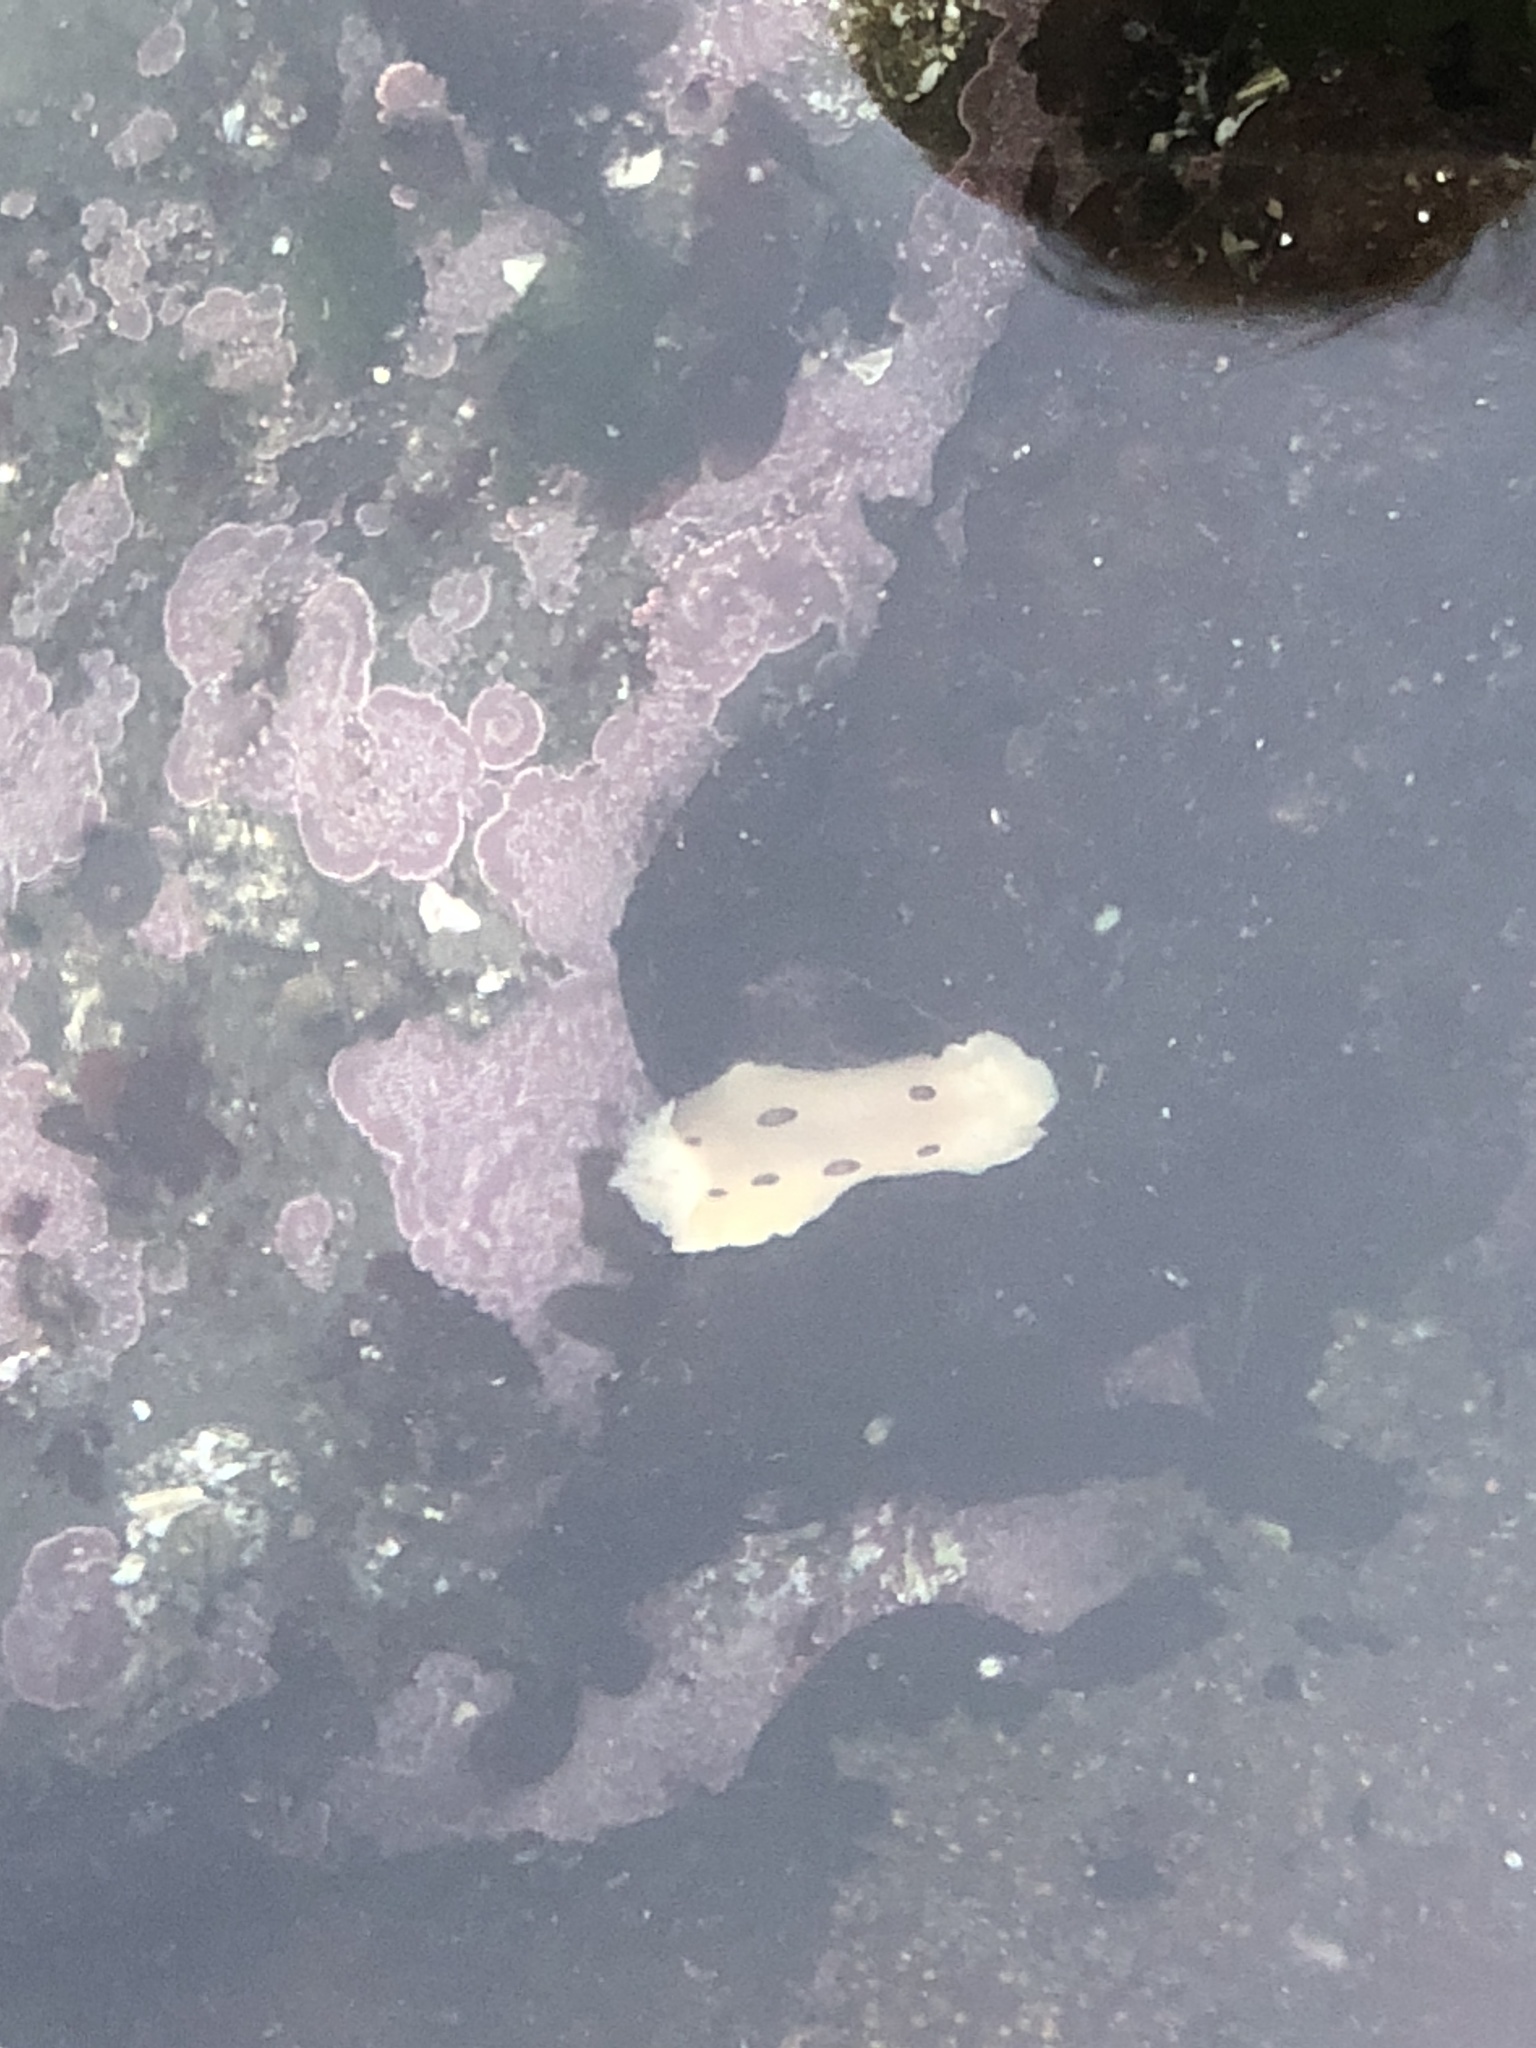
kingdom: Animalia
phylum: Mollusca
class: Gastropoda
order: Nudibranchia
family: Discodorididae
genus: Diaulula
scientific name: Diaulula sandiegensis
